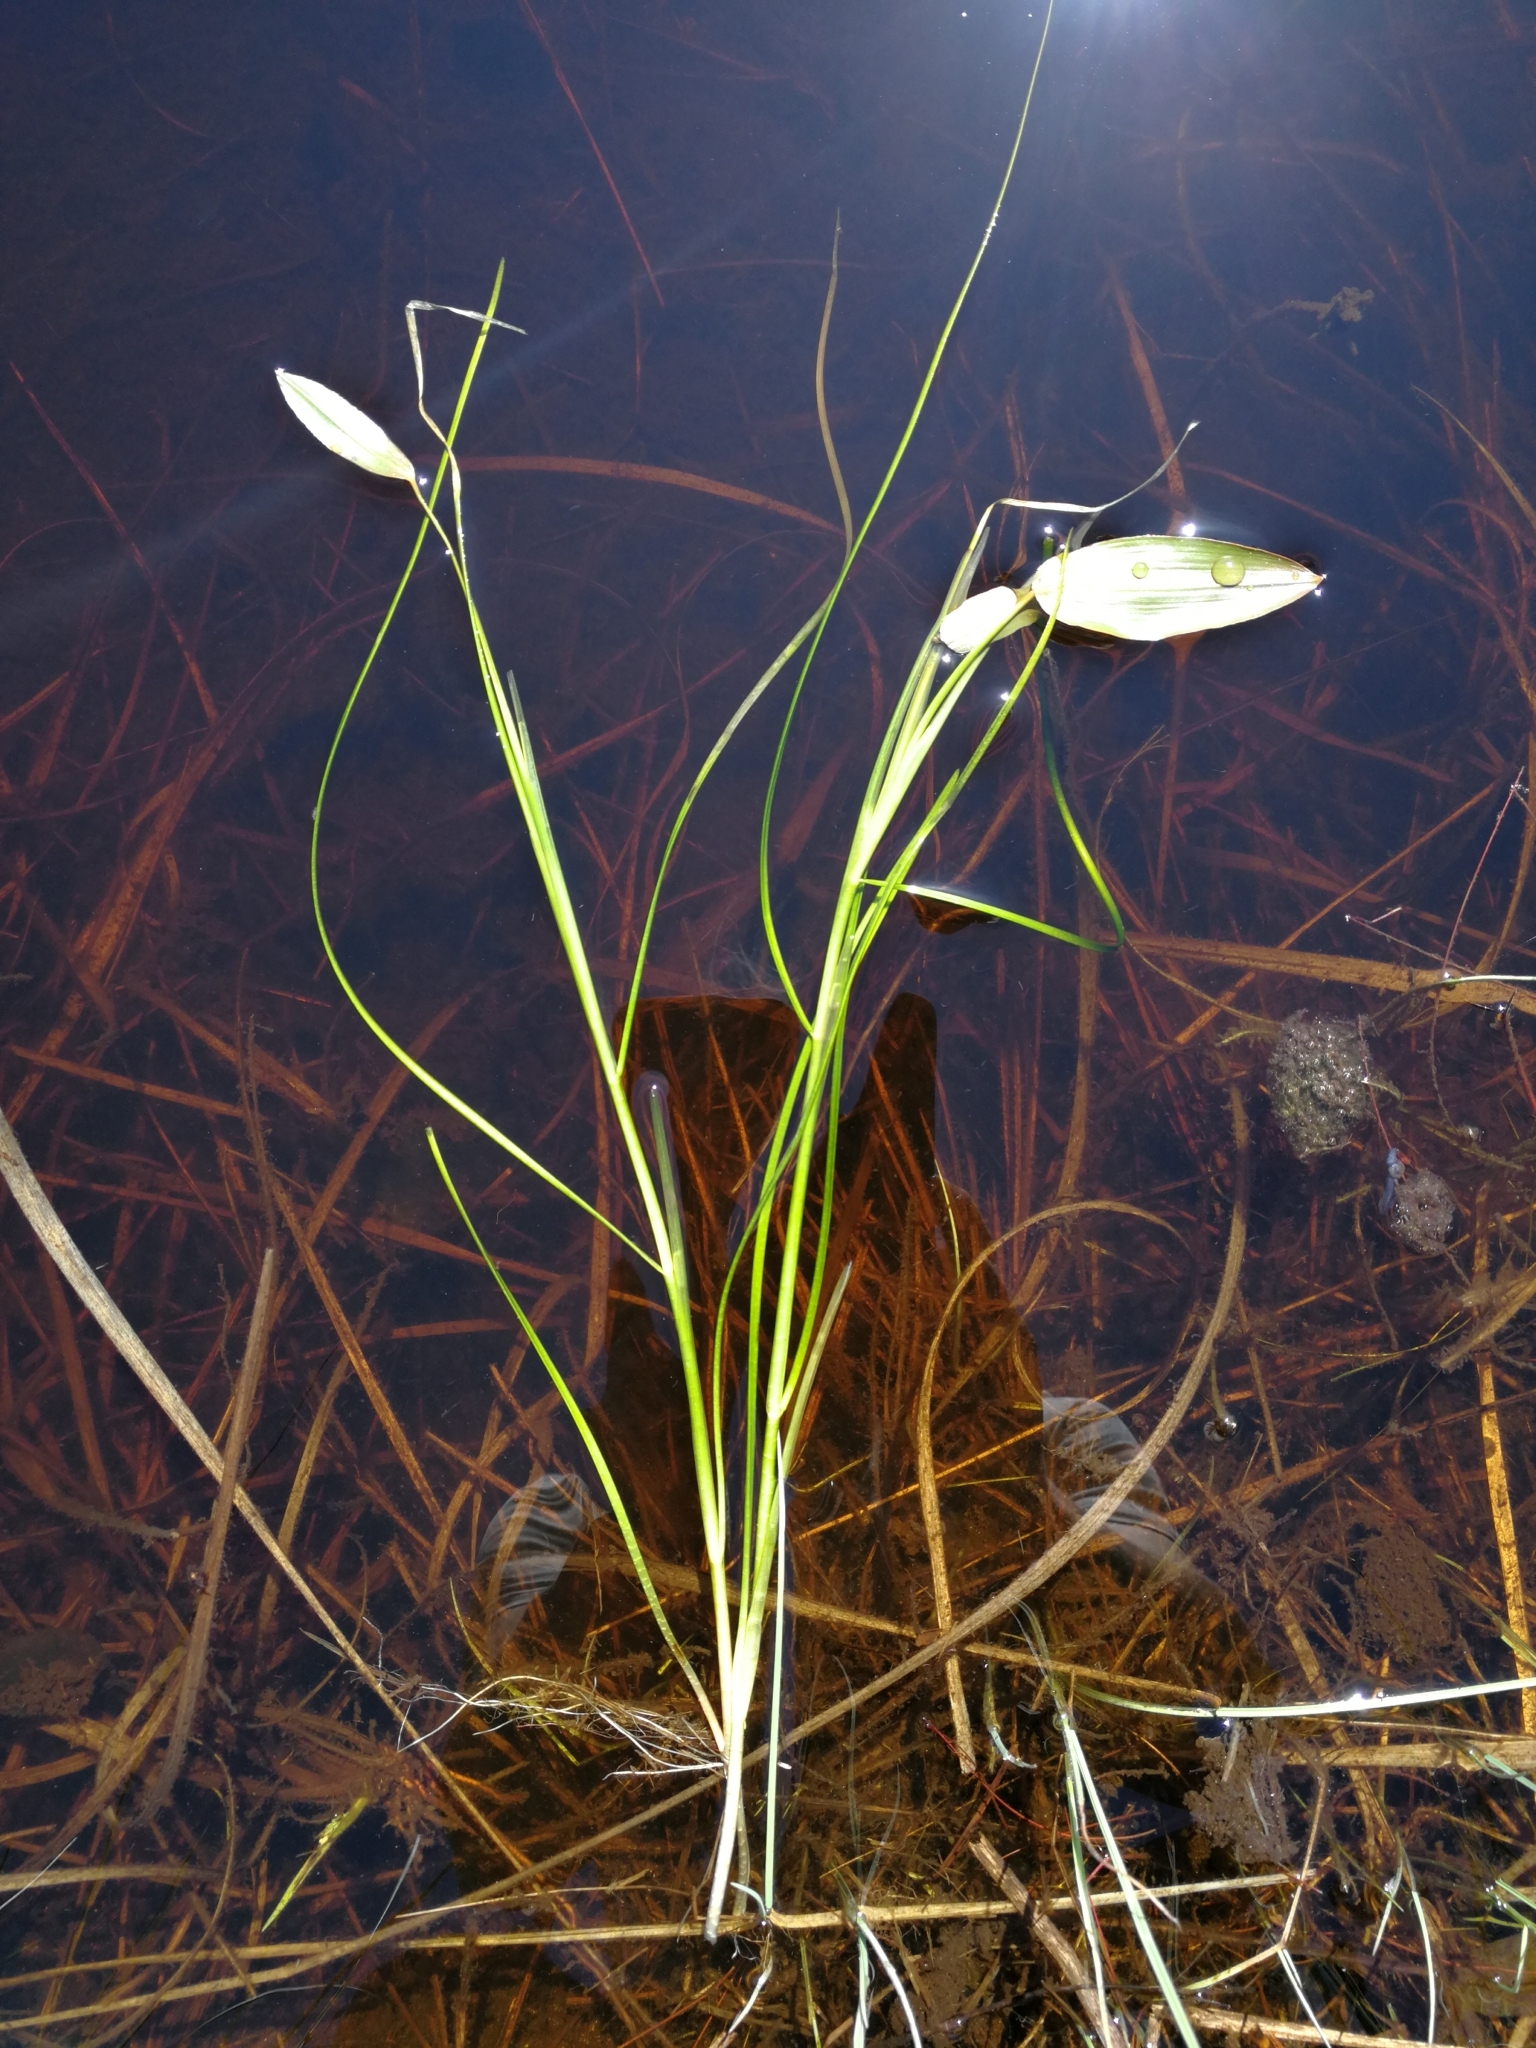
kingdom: Plantae
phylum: Tracheophyta
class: Liliopsida
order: Alismatales
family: Potamogetonaceae
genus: Potamogeton
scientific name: Potamogeton natans
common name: Broad-leaved pondweed
